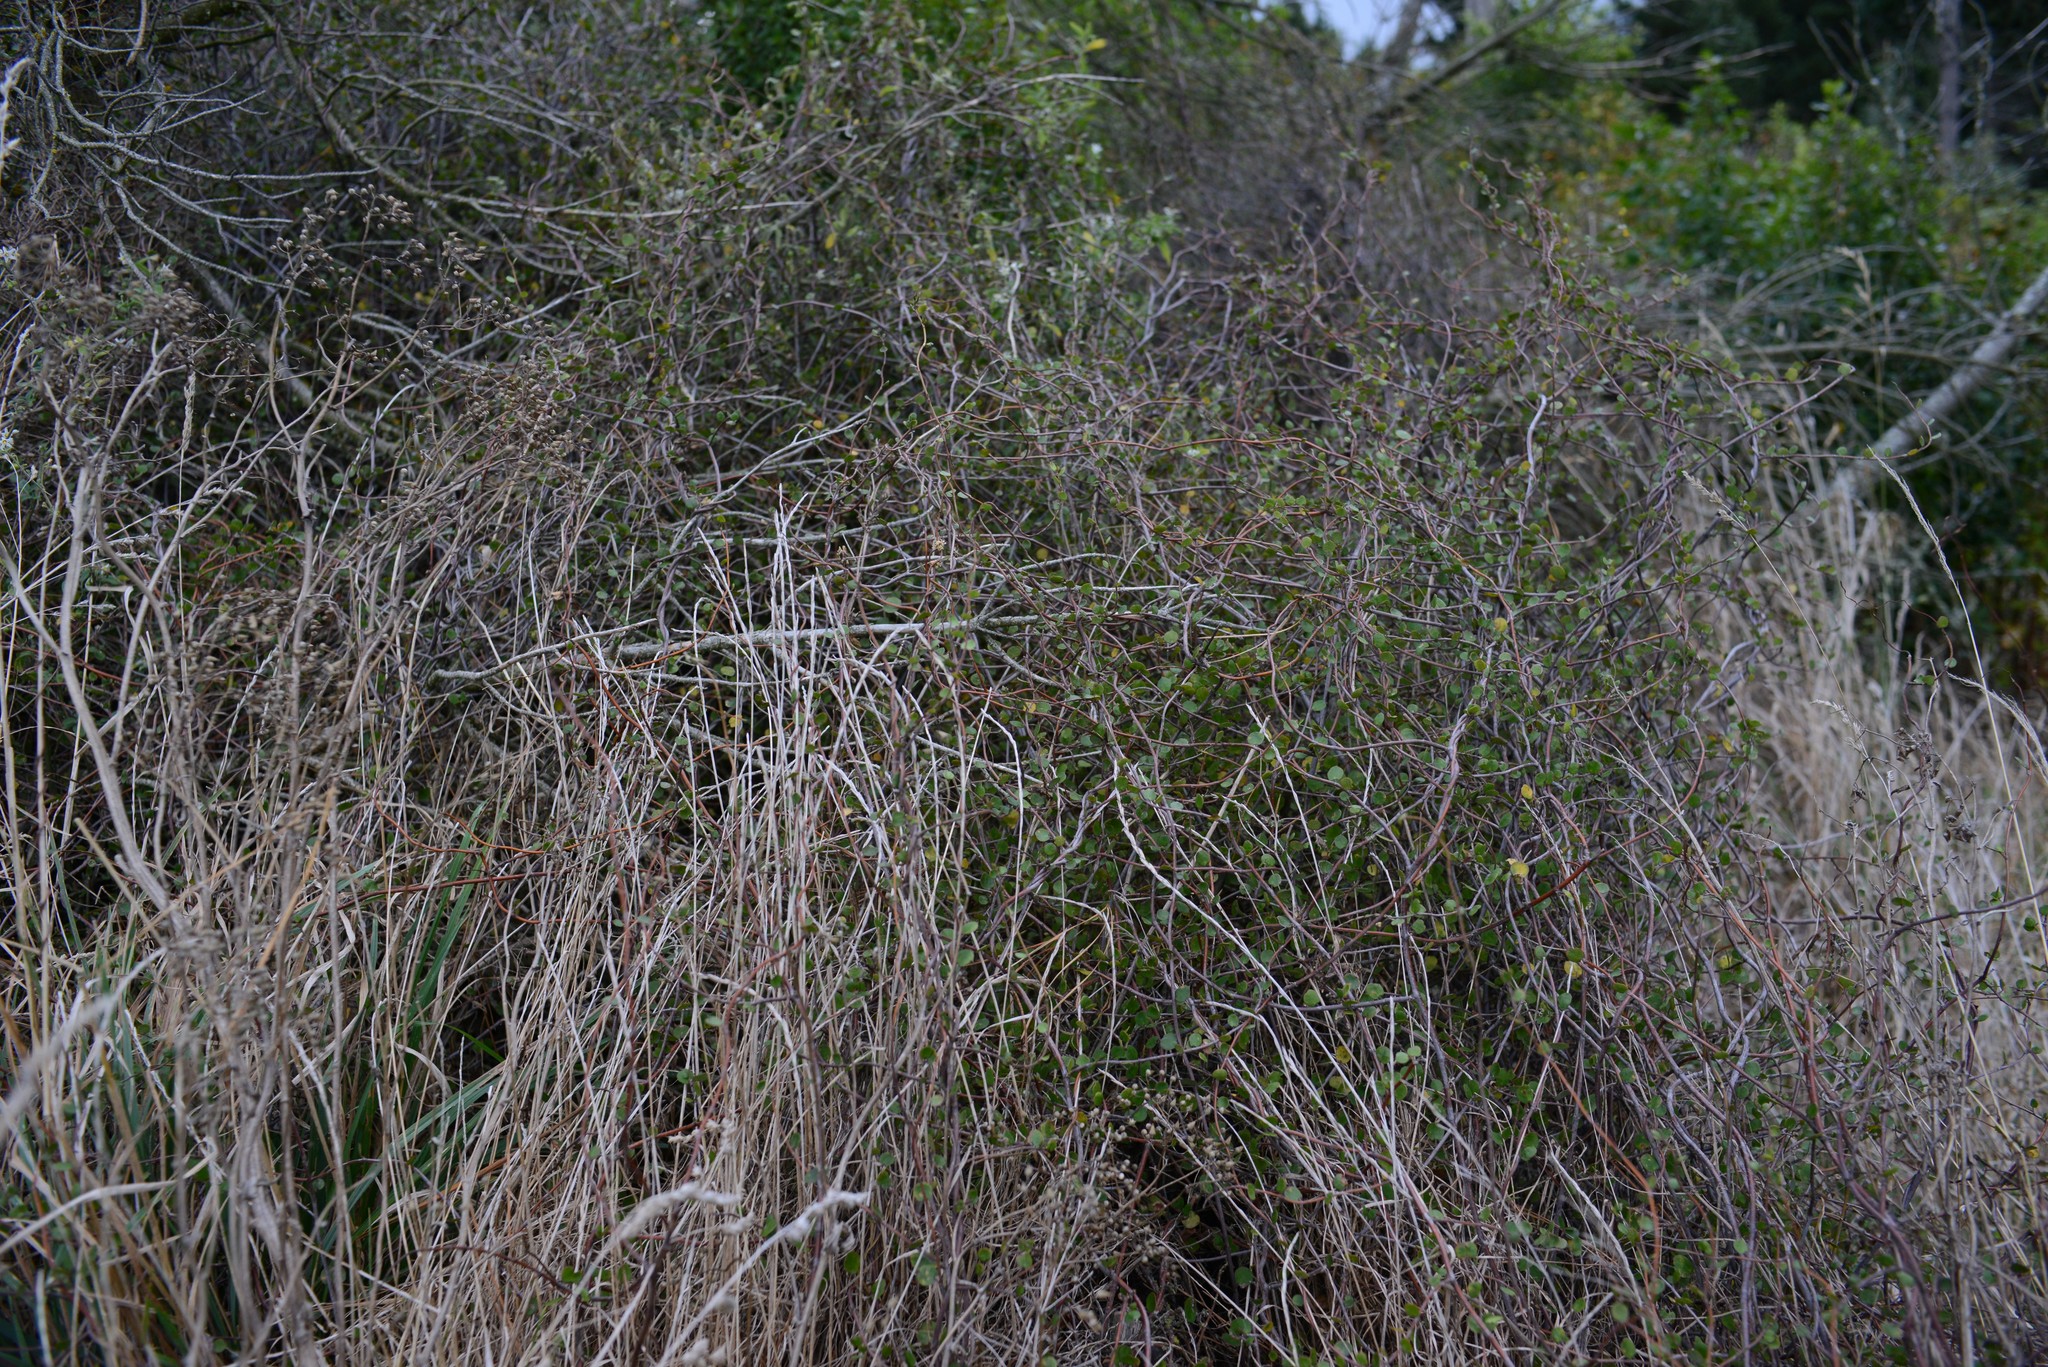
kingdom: Plantae
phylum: Tracheophyta
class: Magnoliopsida
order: Caryophyllales
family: Polygonaceae
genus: Muehlenbeckia
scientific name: Muehlenbeckia complexa
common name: Wireplant
